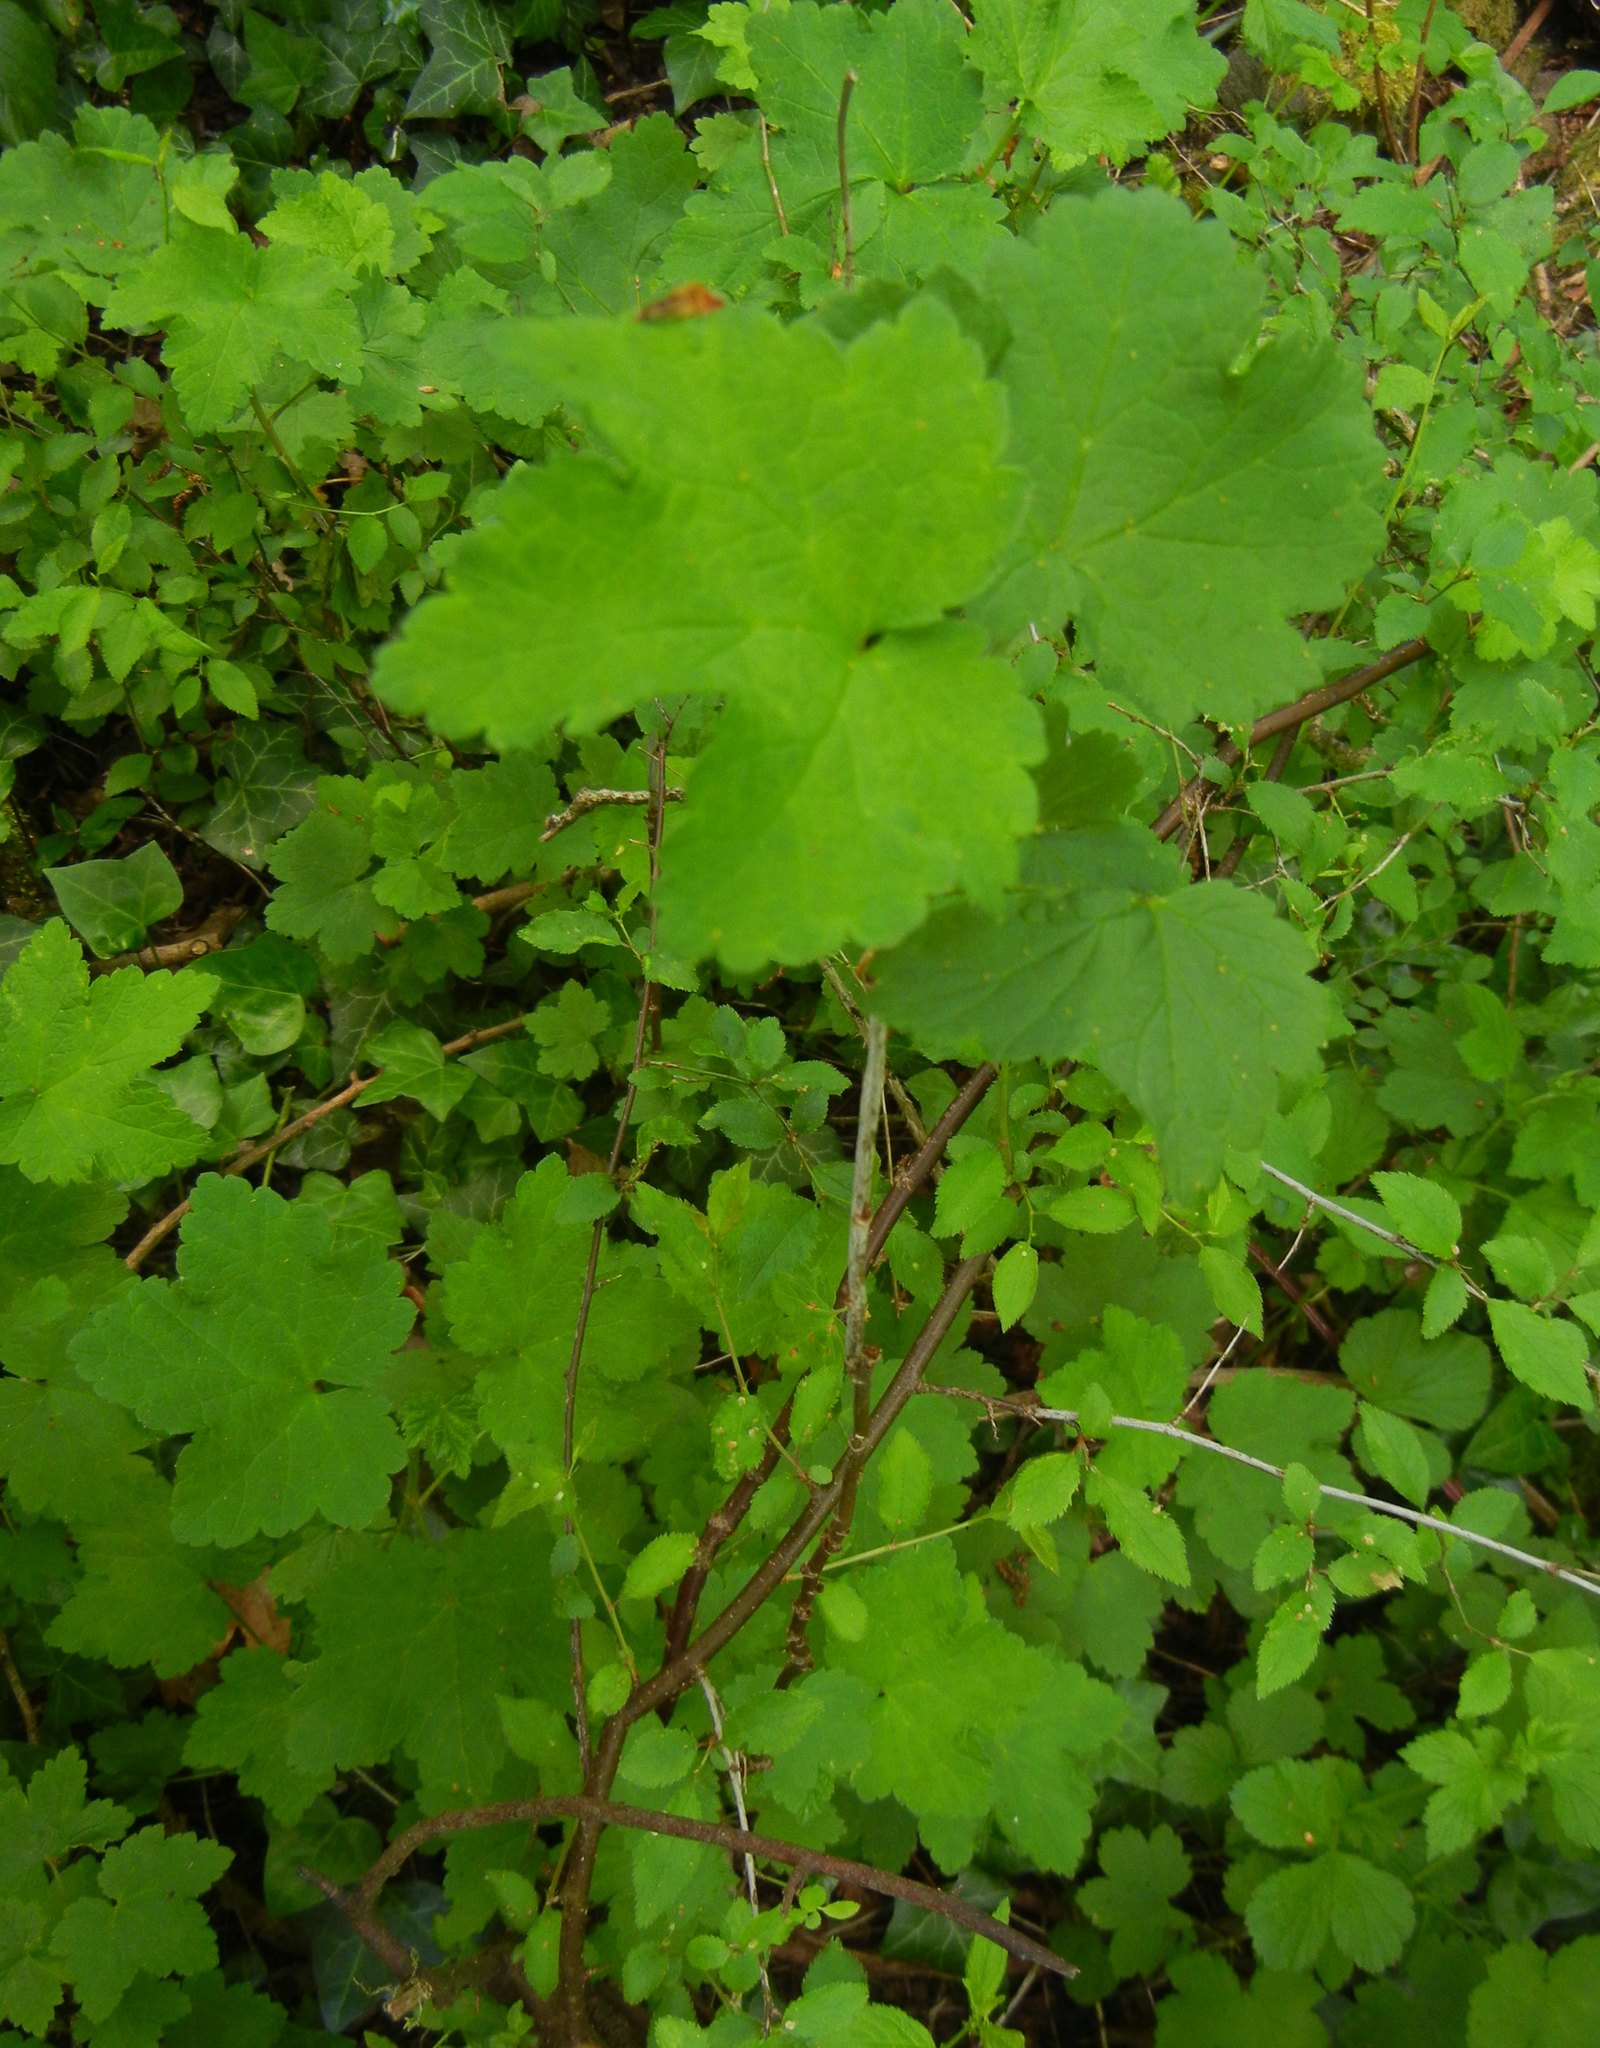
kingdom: Plantae
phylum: Tracheophyta
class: Magnoliopsida
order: Saxifragales
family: Grossulariaceae
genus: Ribes
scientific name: Ribes nigrum
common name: Black currant
